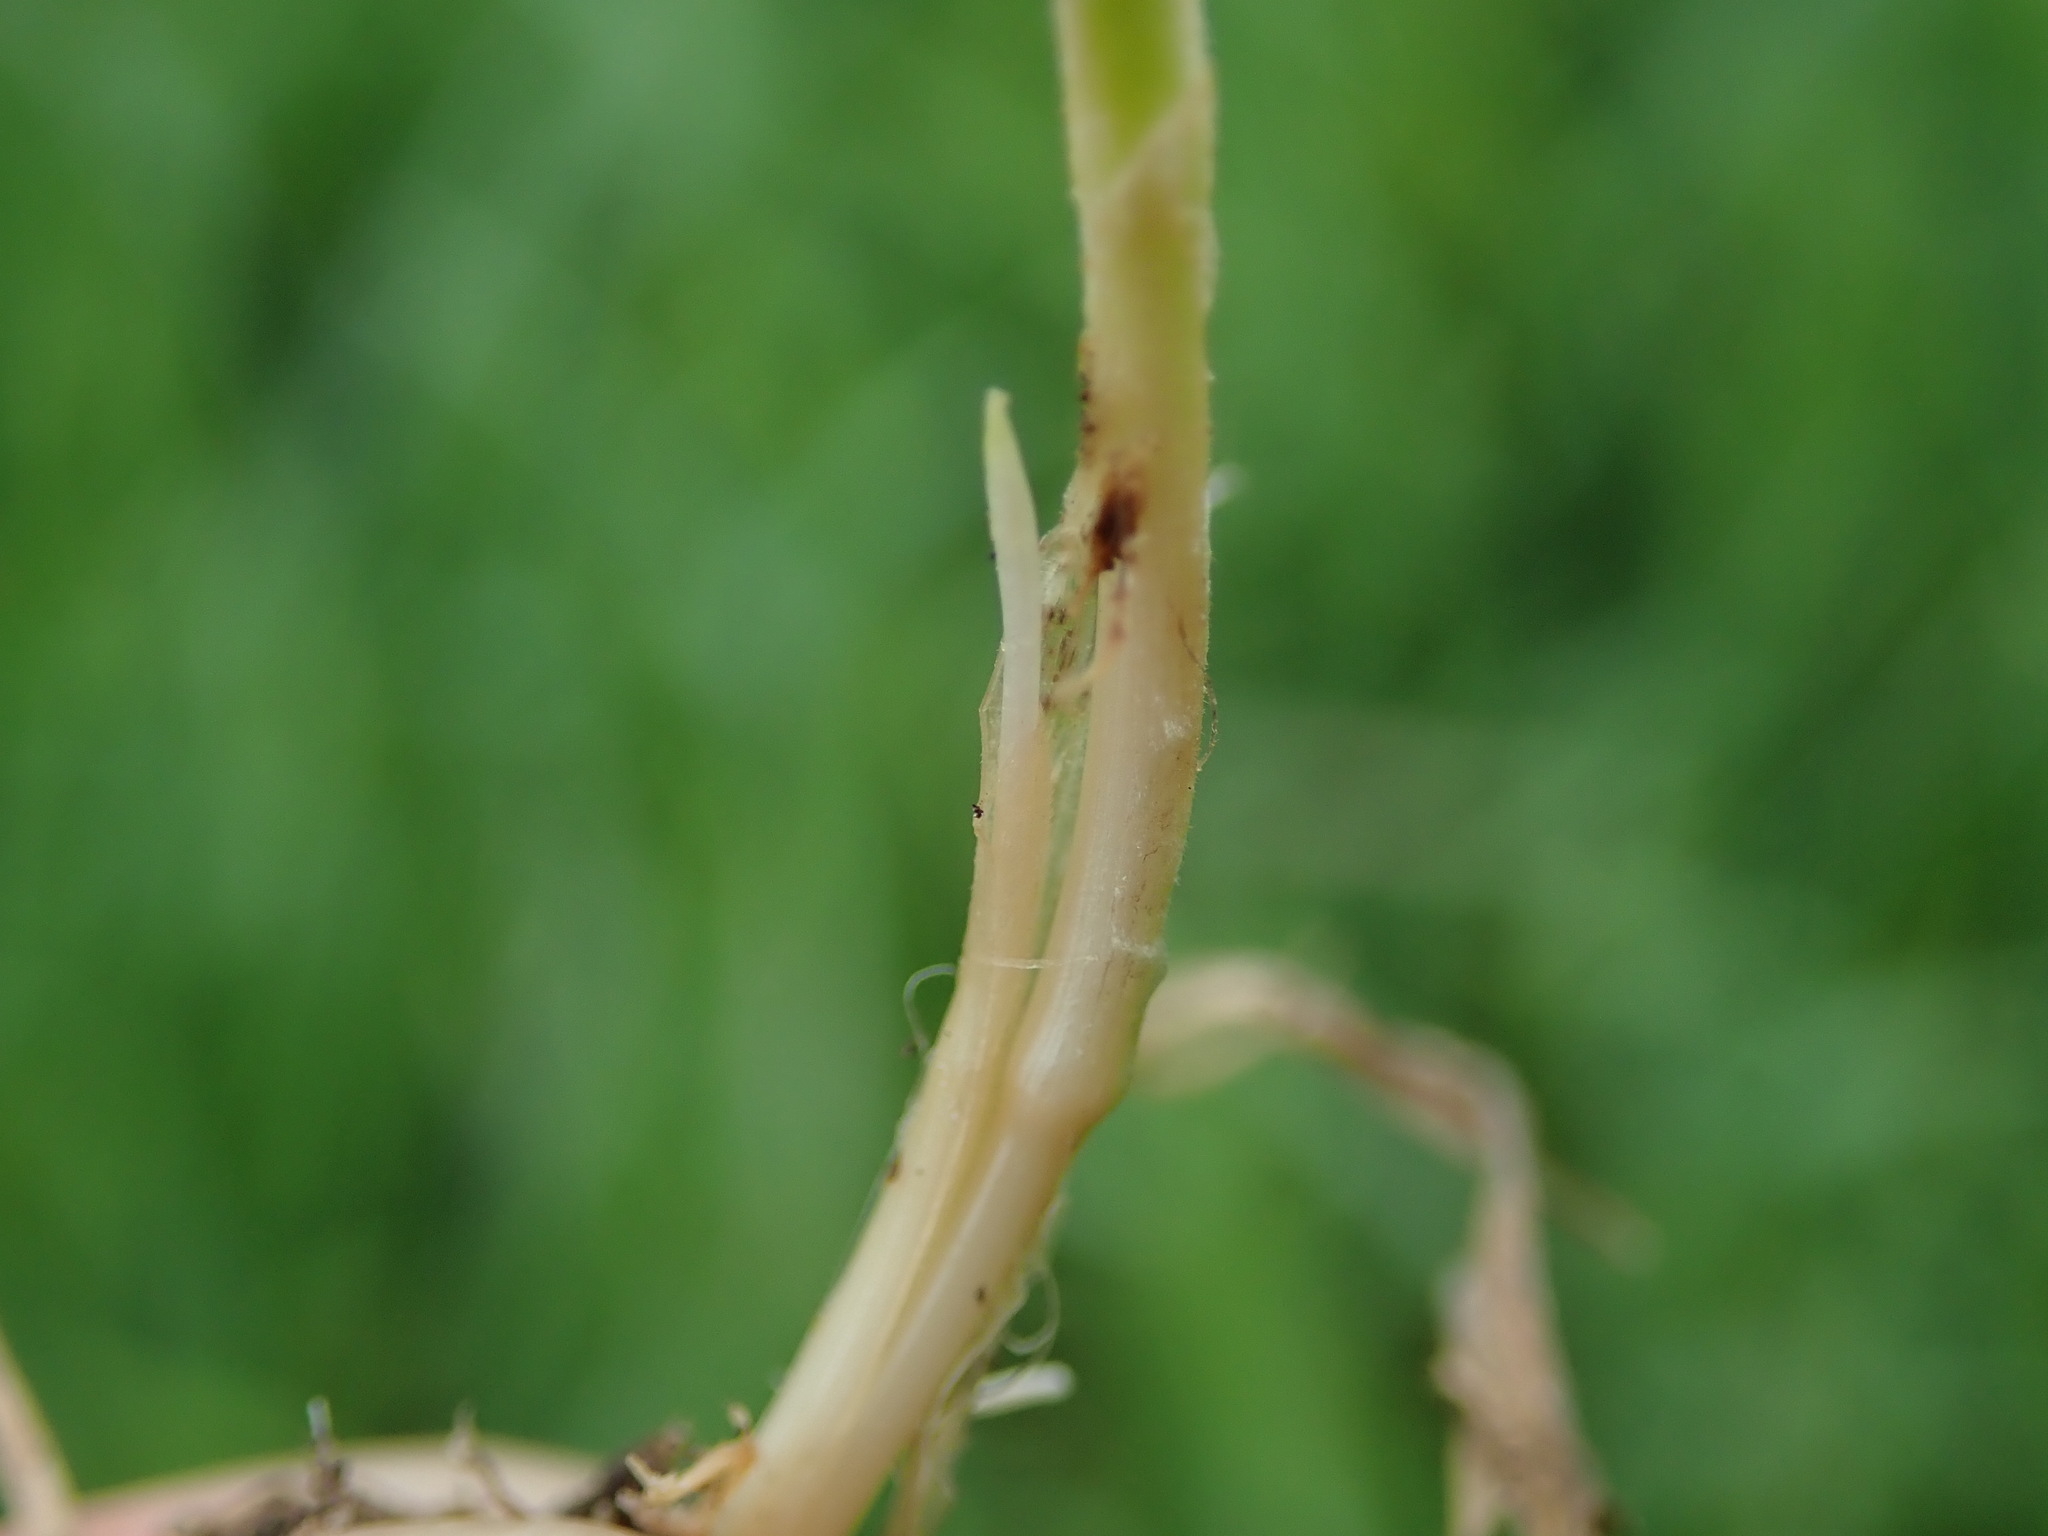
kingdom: Plantae
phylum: Tracheophyta
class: Liliopsida
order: Poales
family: Poaceae
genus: Elymus
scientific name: Elymus repens
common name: Quackgrass
